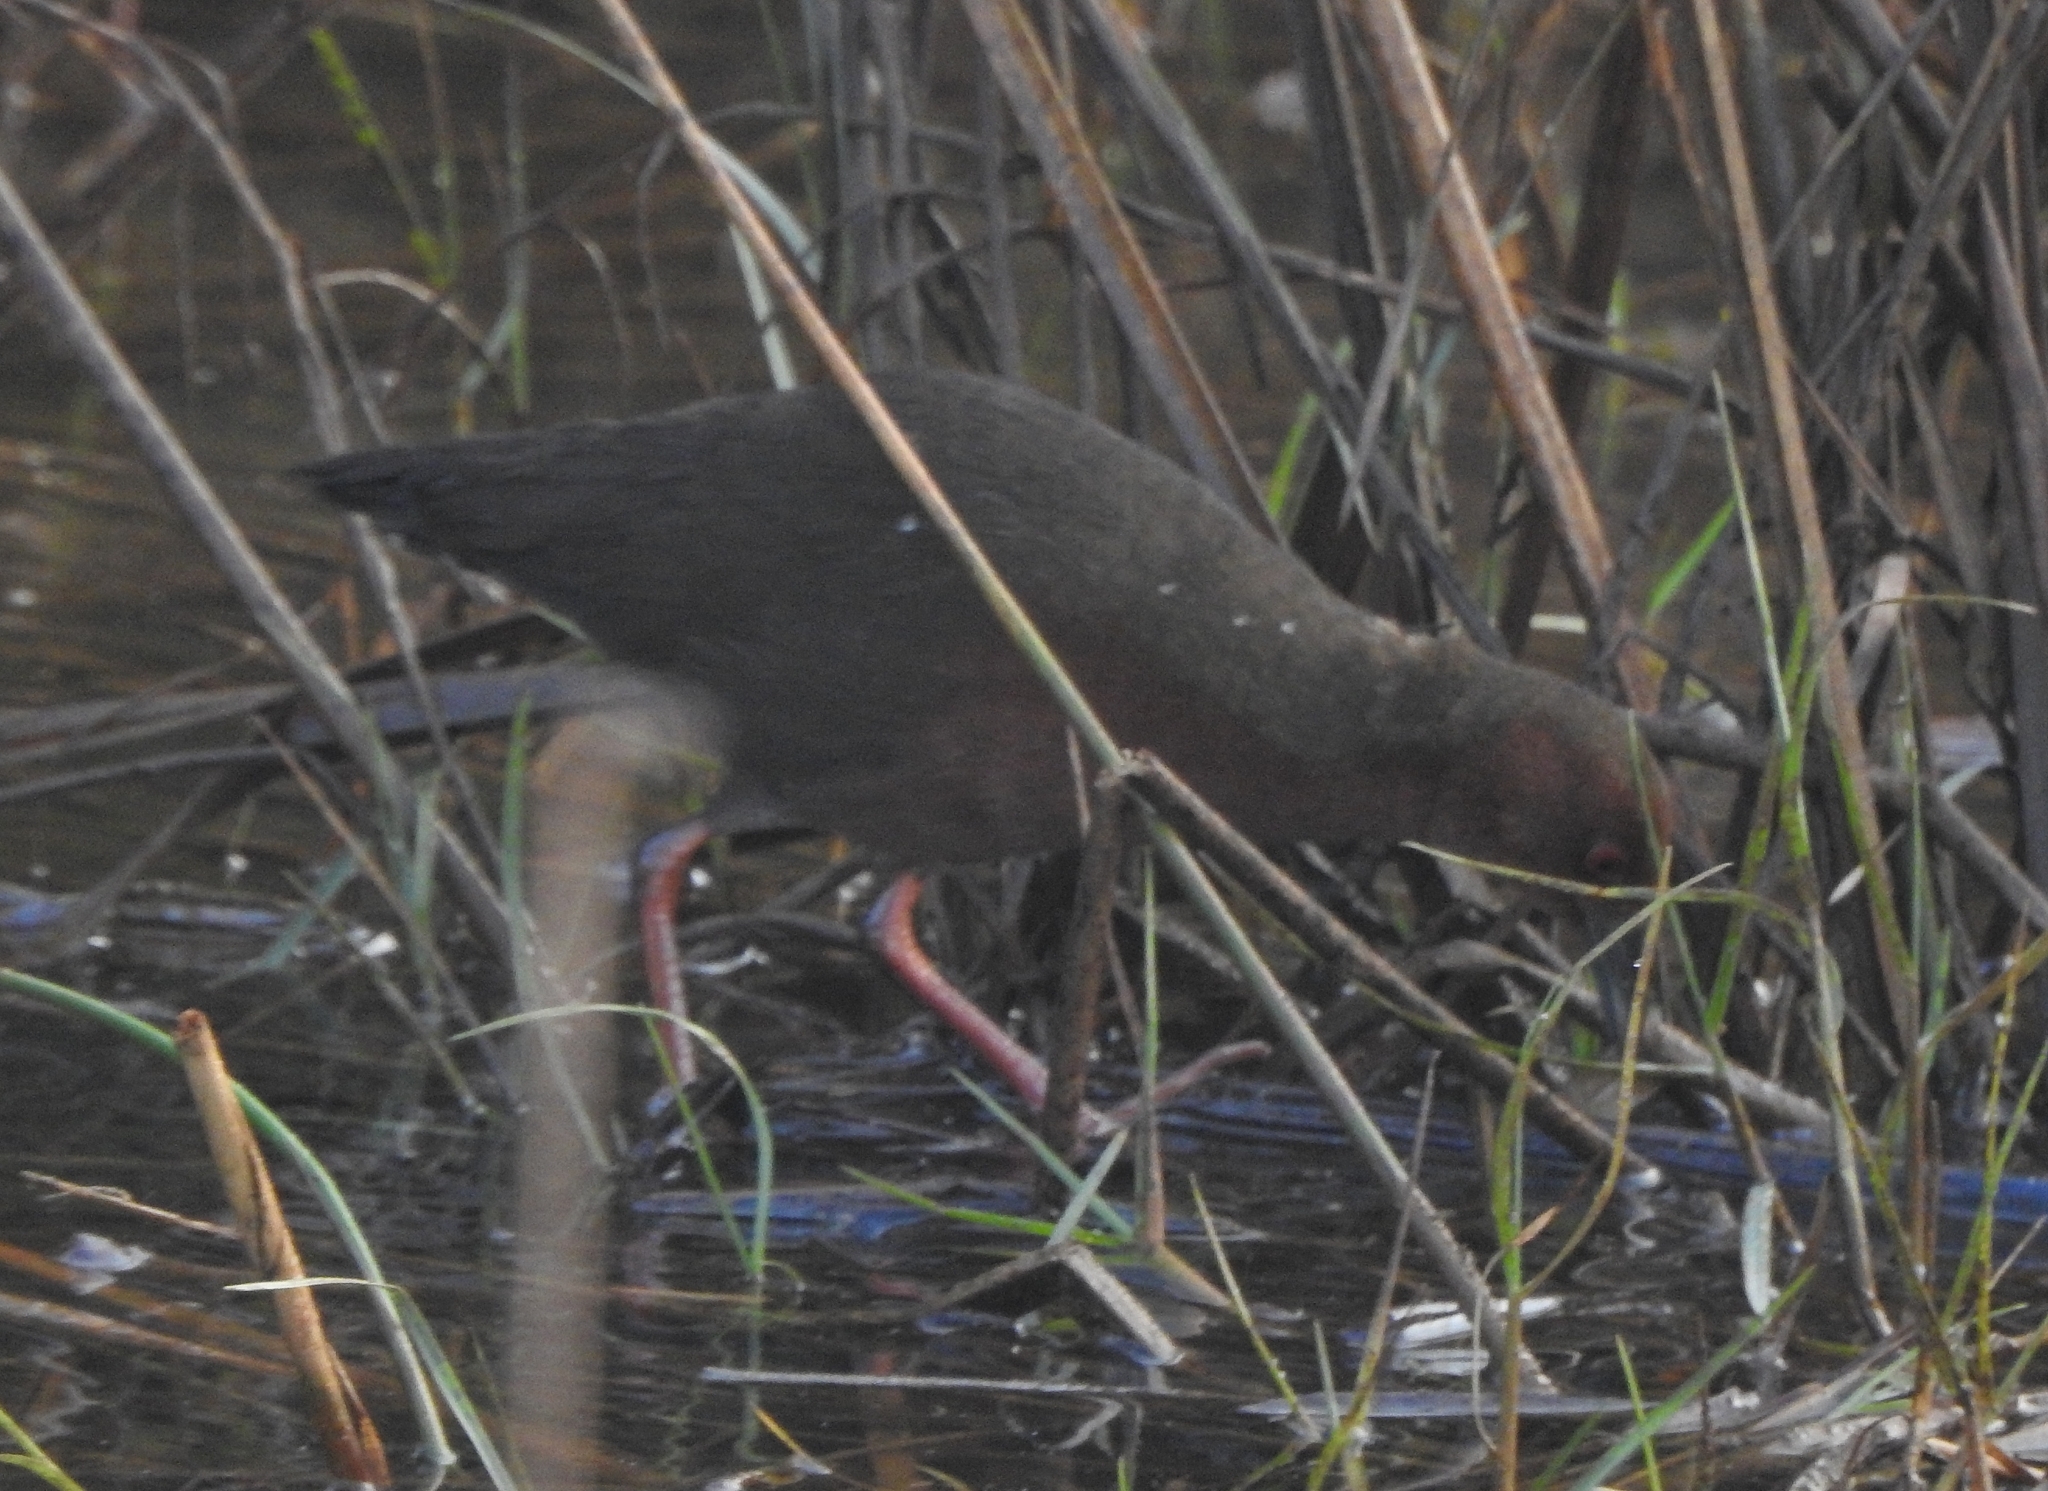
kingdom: Animalia
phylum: Chordata
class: Aves
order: Gruiformes
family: Rallidae
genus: Porzana
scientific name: Porzana fusca
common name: Ruddy-breasted crake
